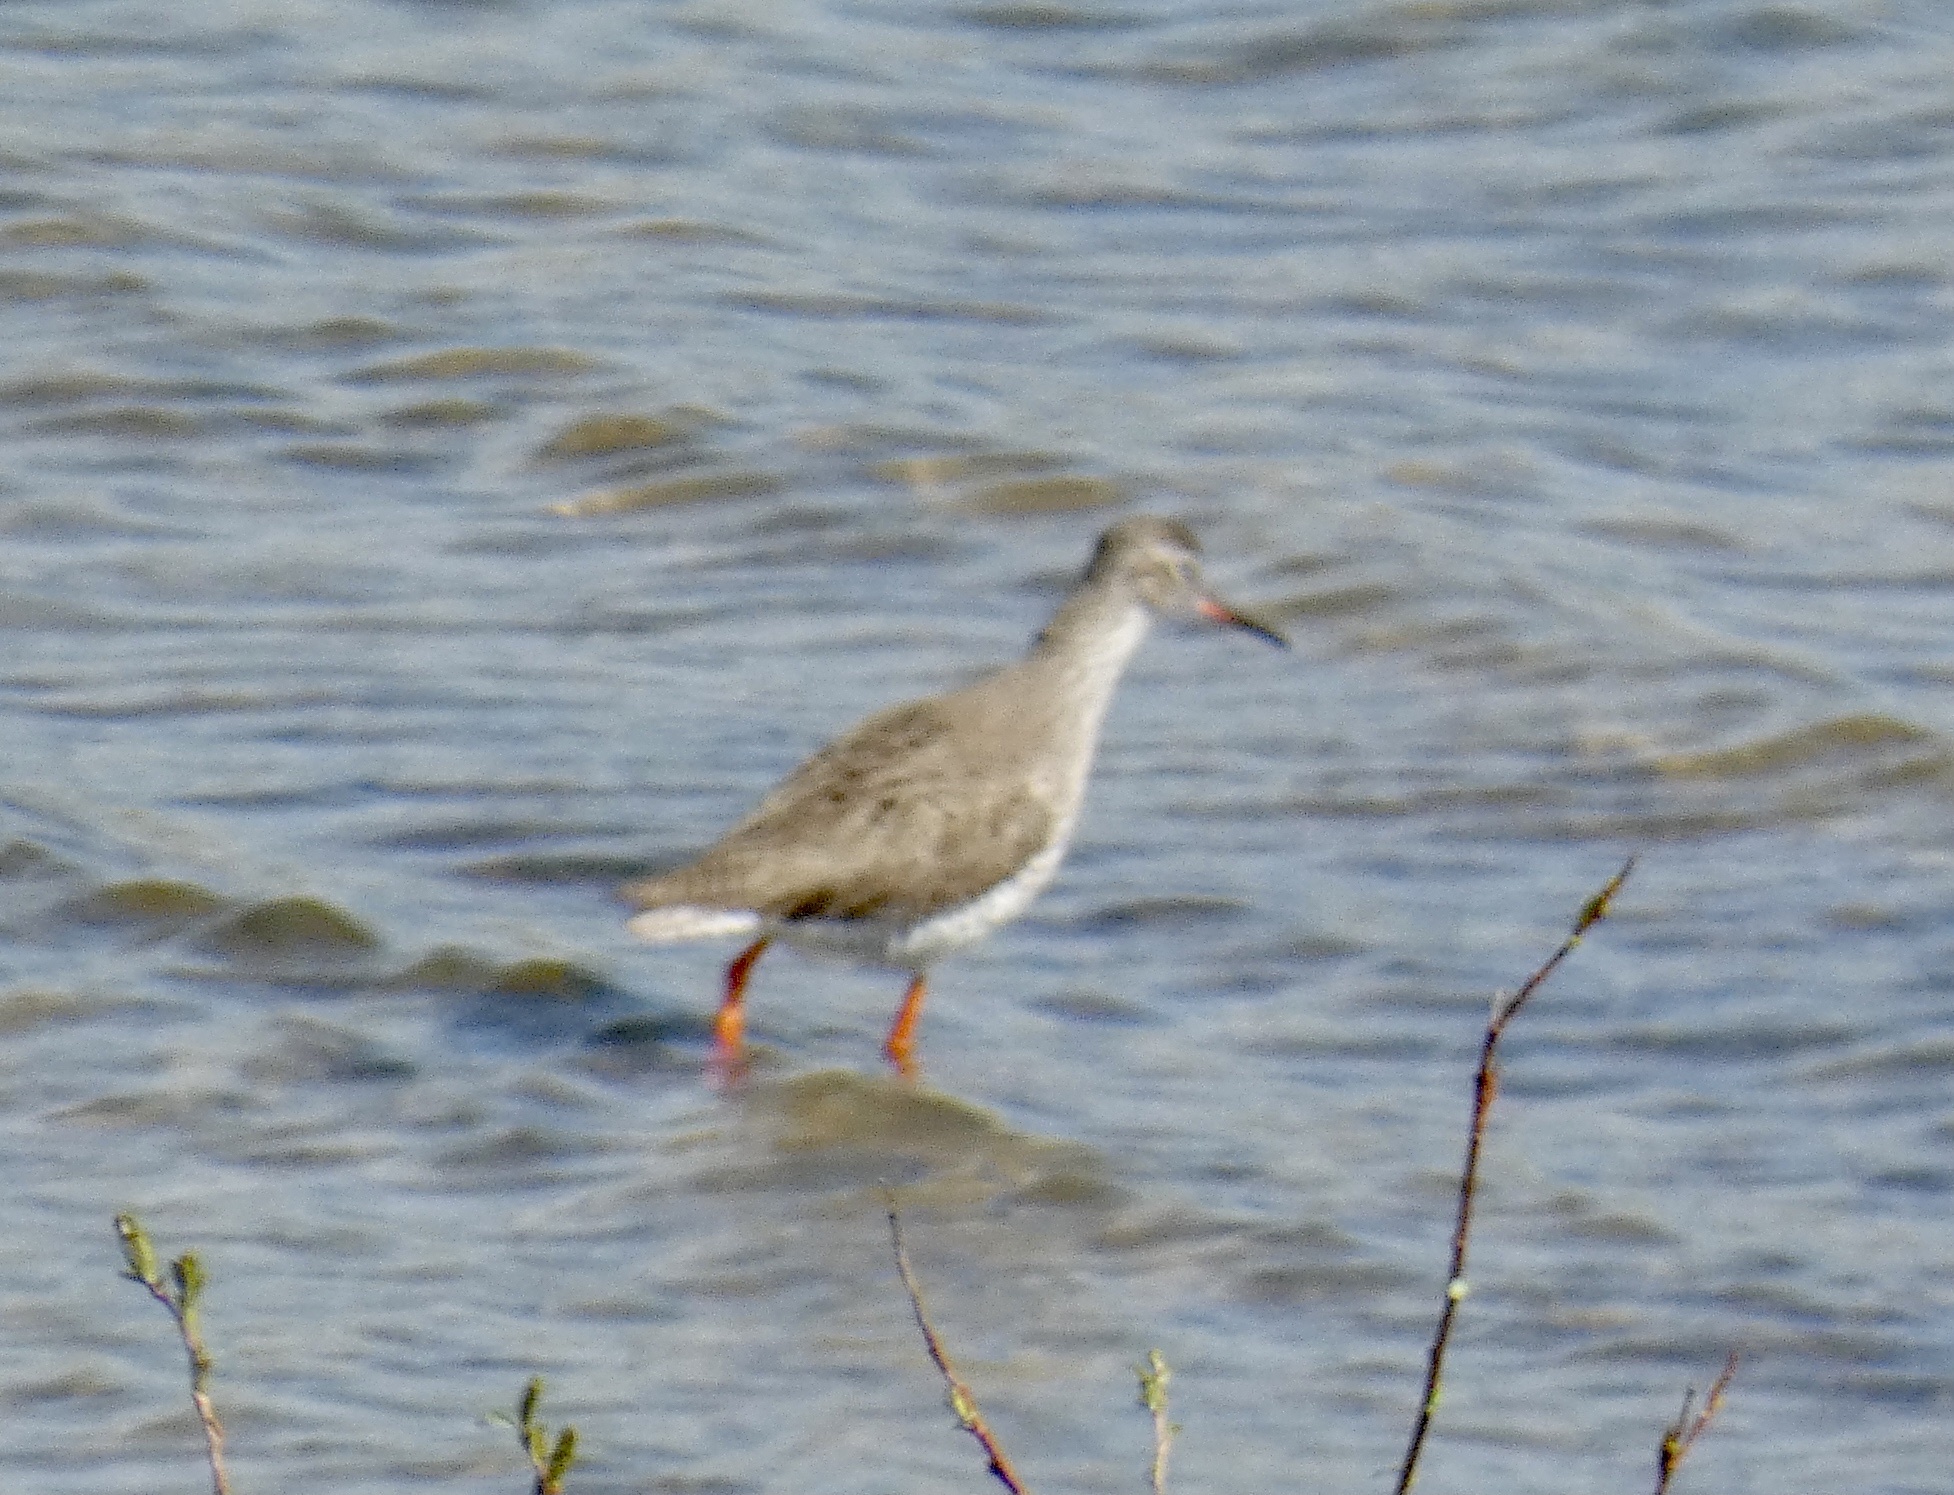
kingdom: Animalia
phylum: Chordata
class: Aves
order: Charadriiformes
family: Scolopacidae
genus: Tringa
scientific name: Tringa totanus
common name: Common redshank
